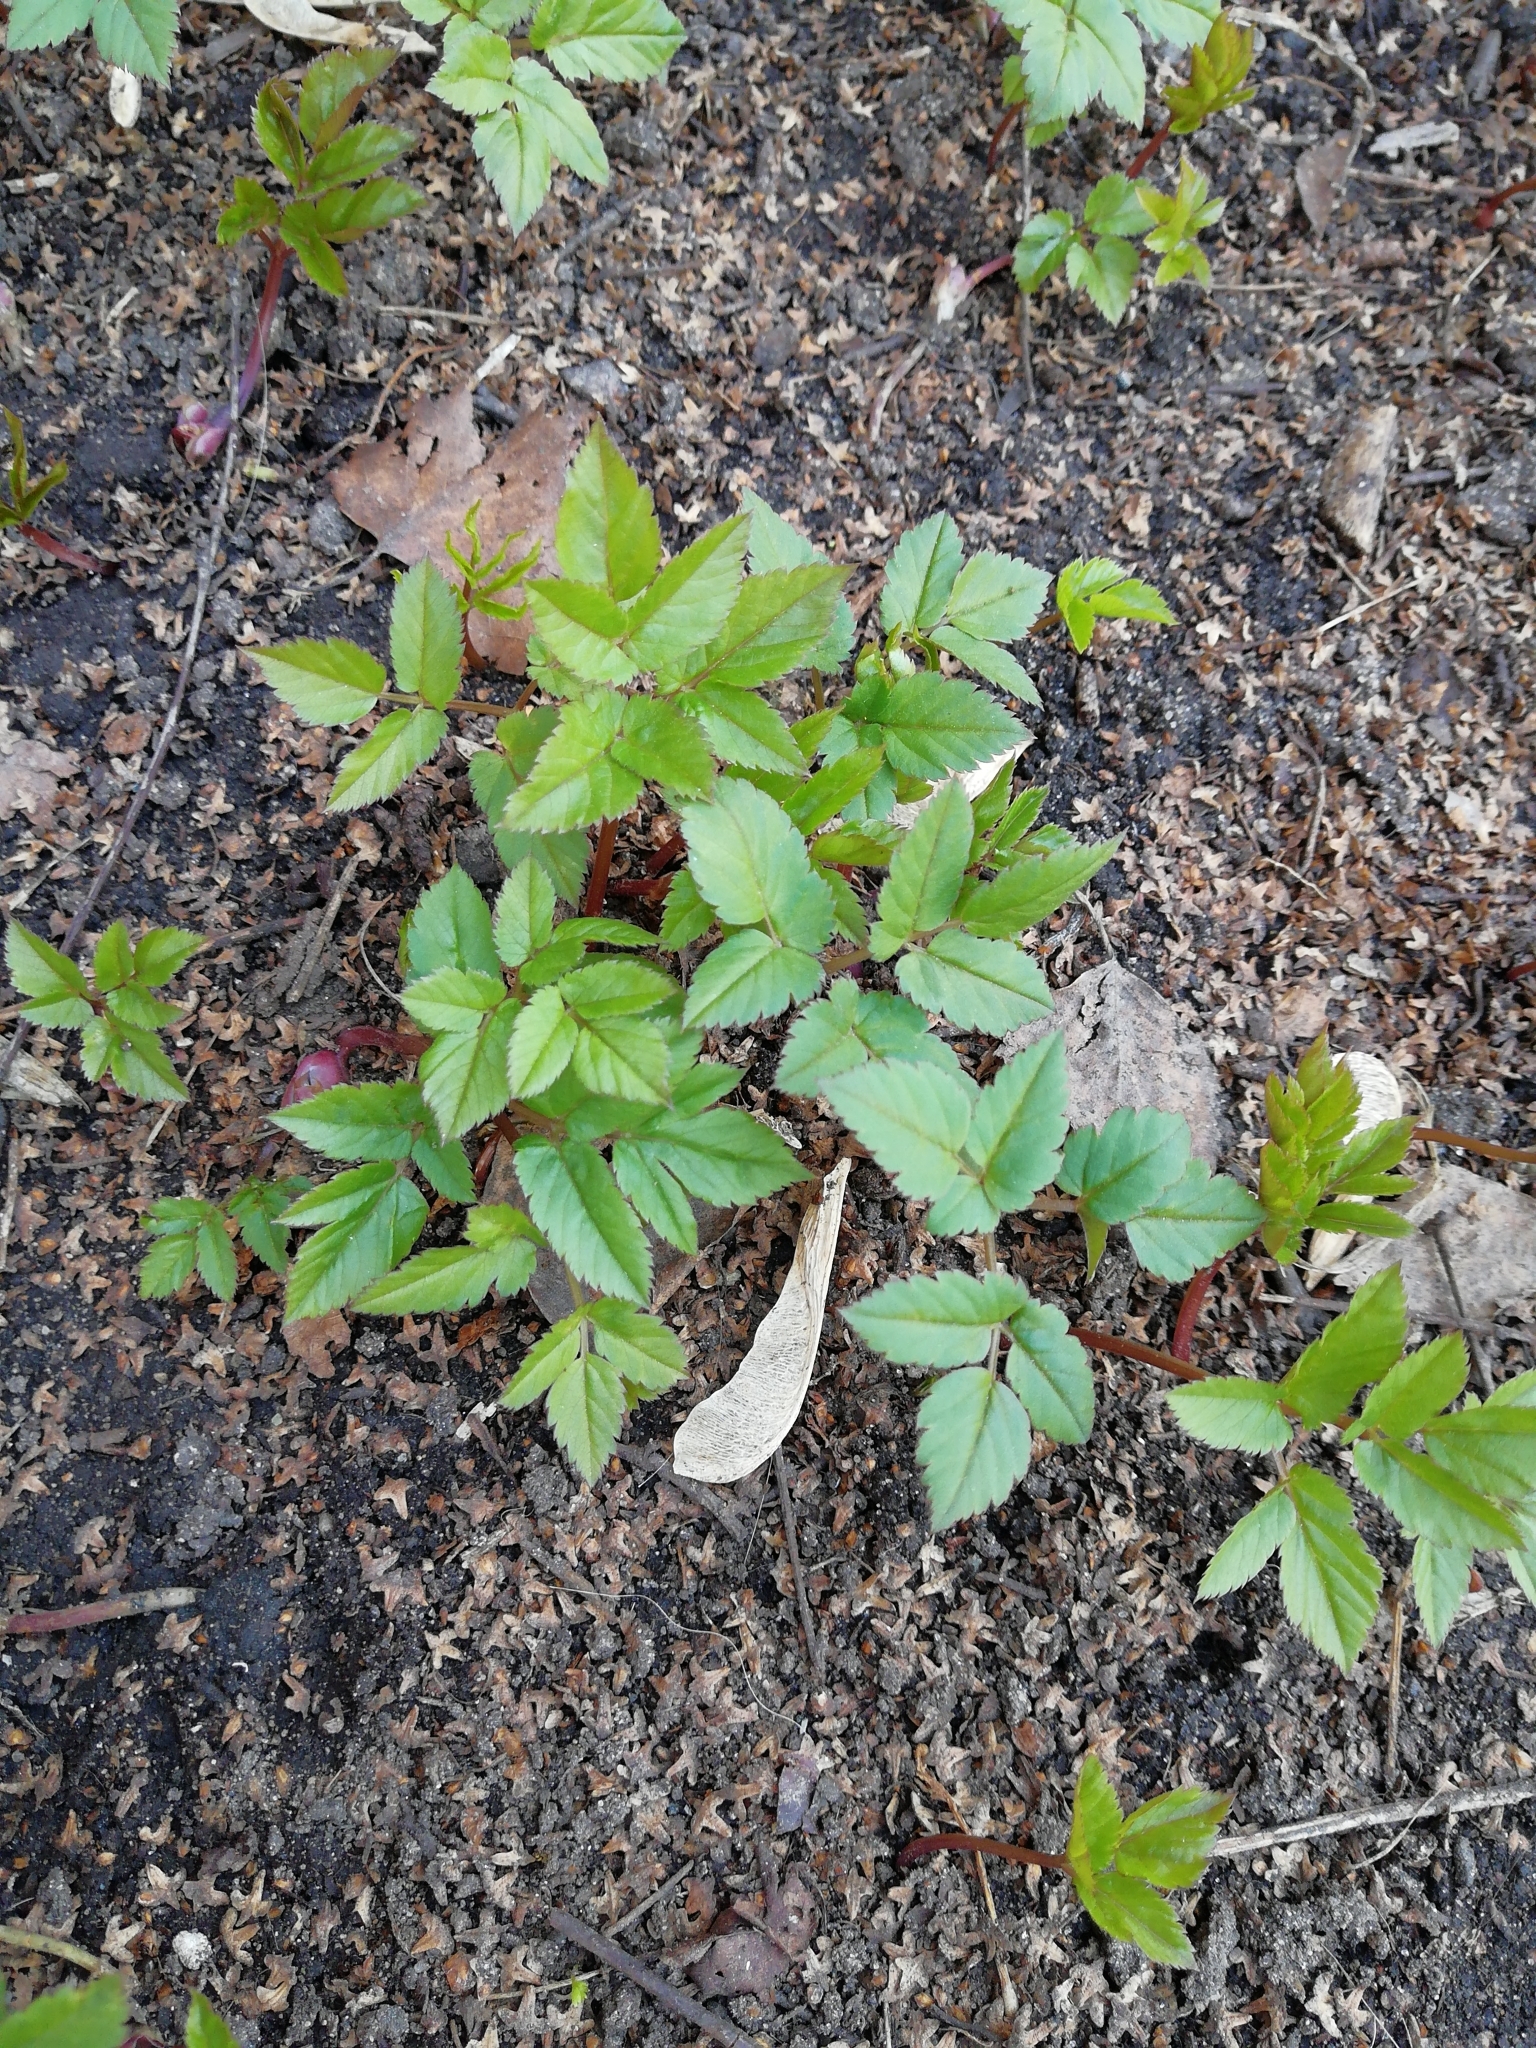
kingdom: Plantae
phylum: Tracheophyta
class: Magnoliopsida
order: Apiales
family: Apiaceae
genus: Aegopodium
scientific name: Aegopodium podagraria
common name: Ground-elder
